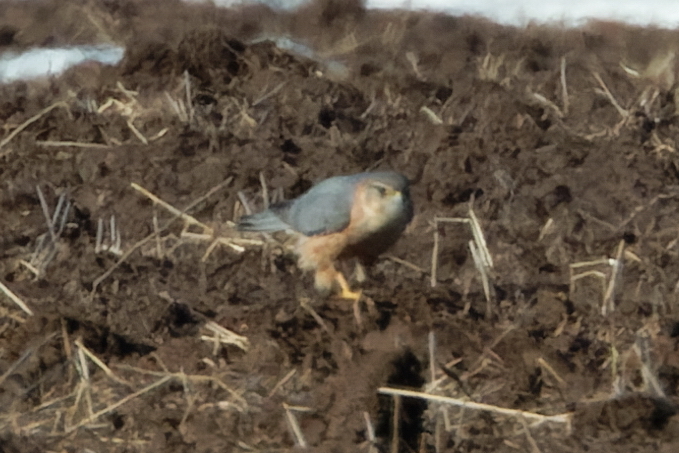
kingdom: Animalia
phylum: Chordata
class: Aves
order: Falconiformes
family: Falconidae
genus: Falco
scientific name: Falco columbarius
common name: Merlin
